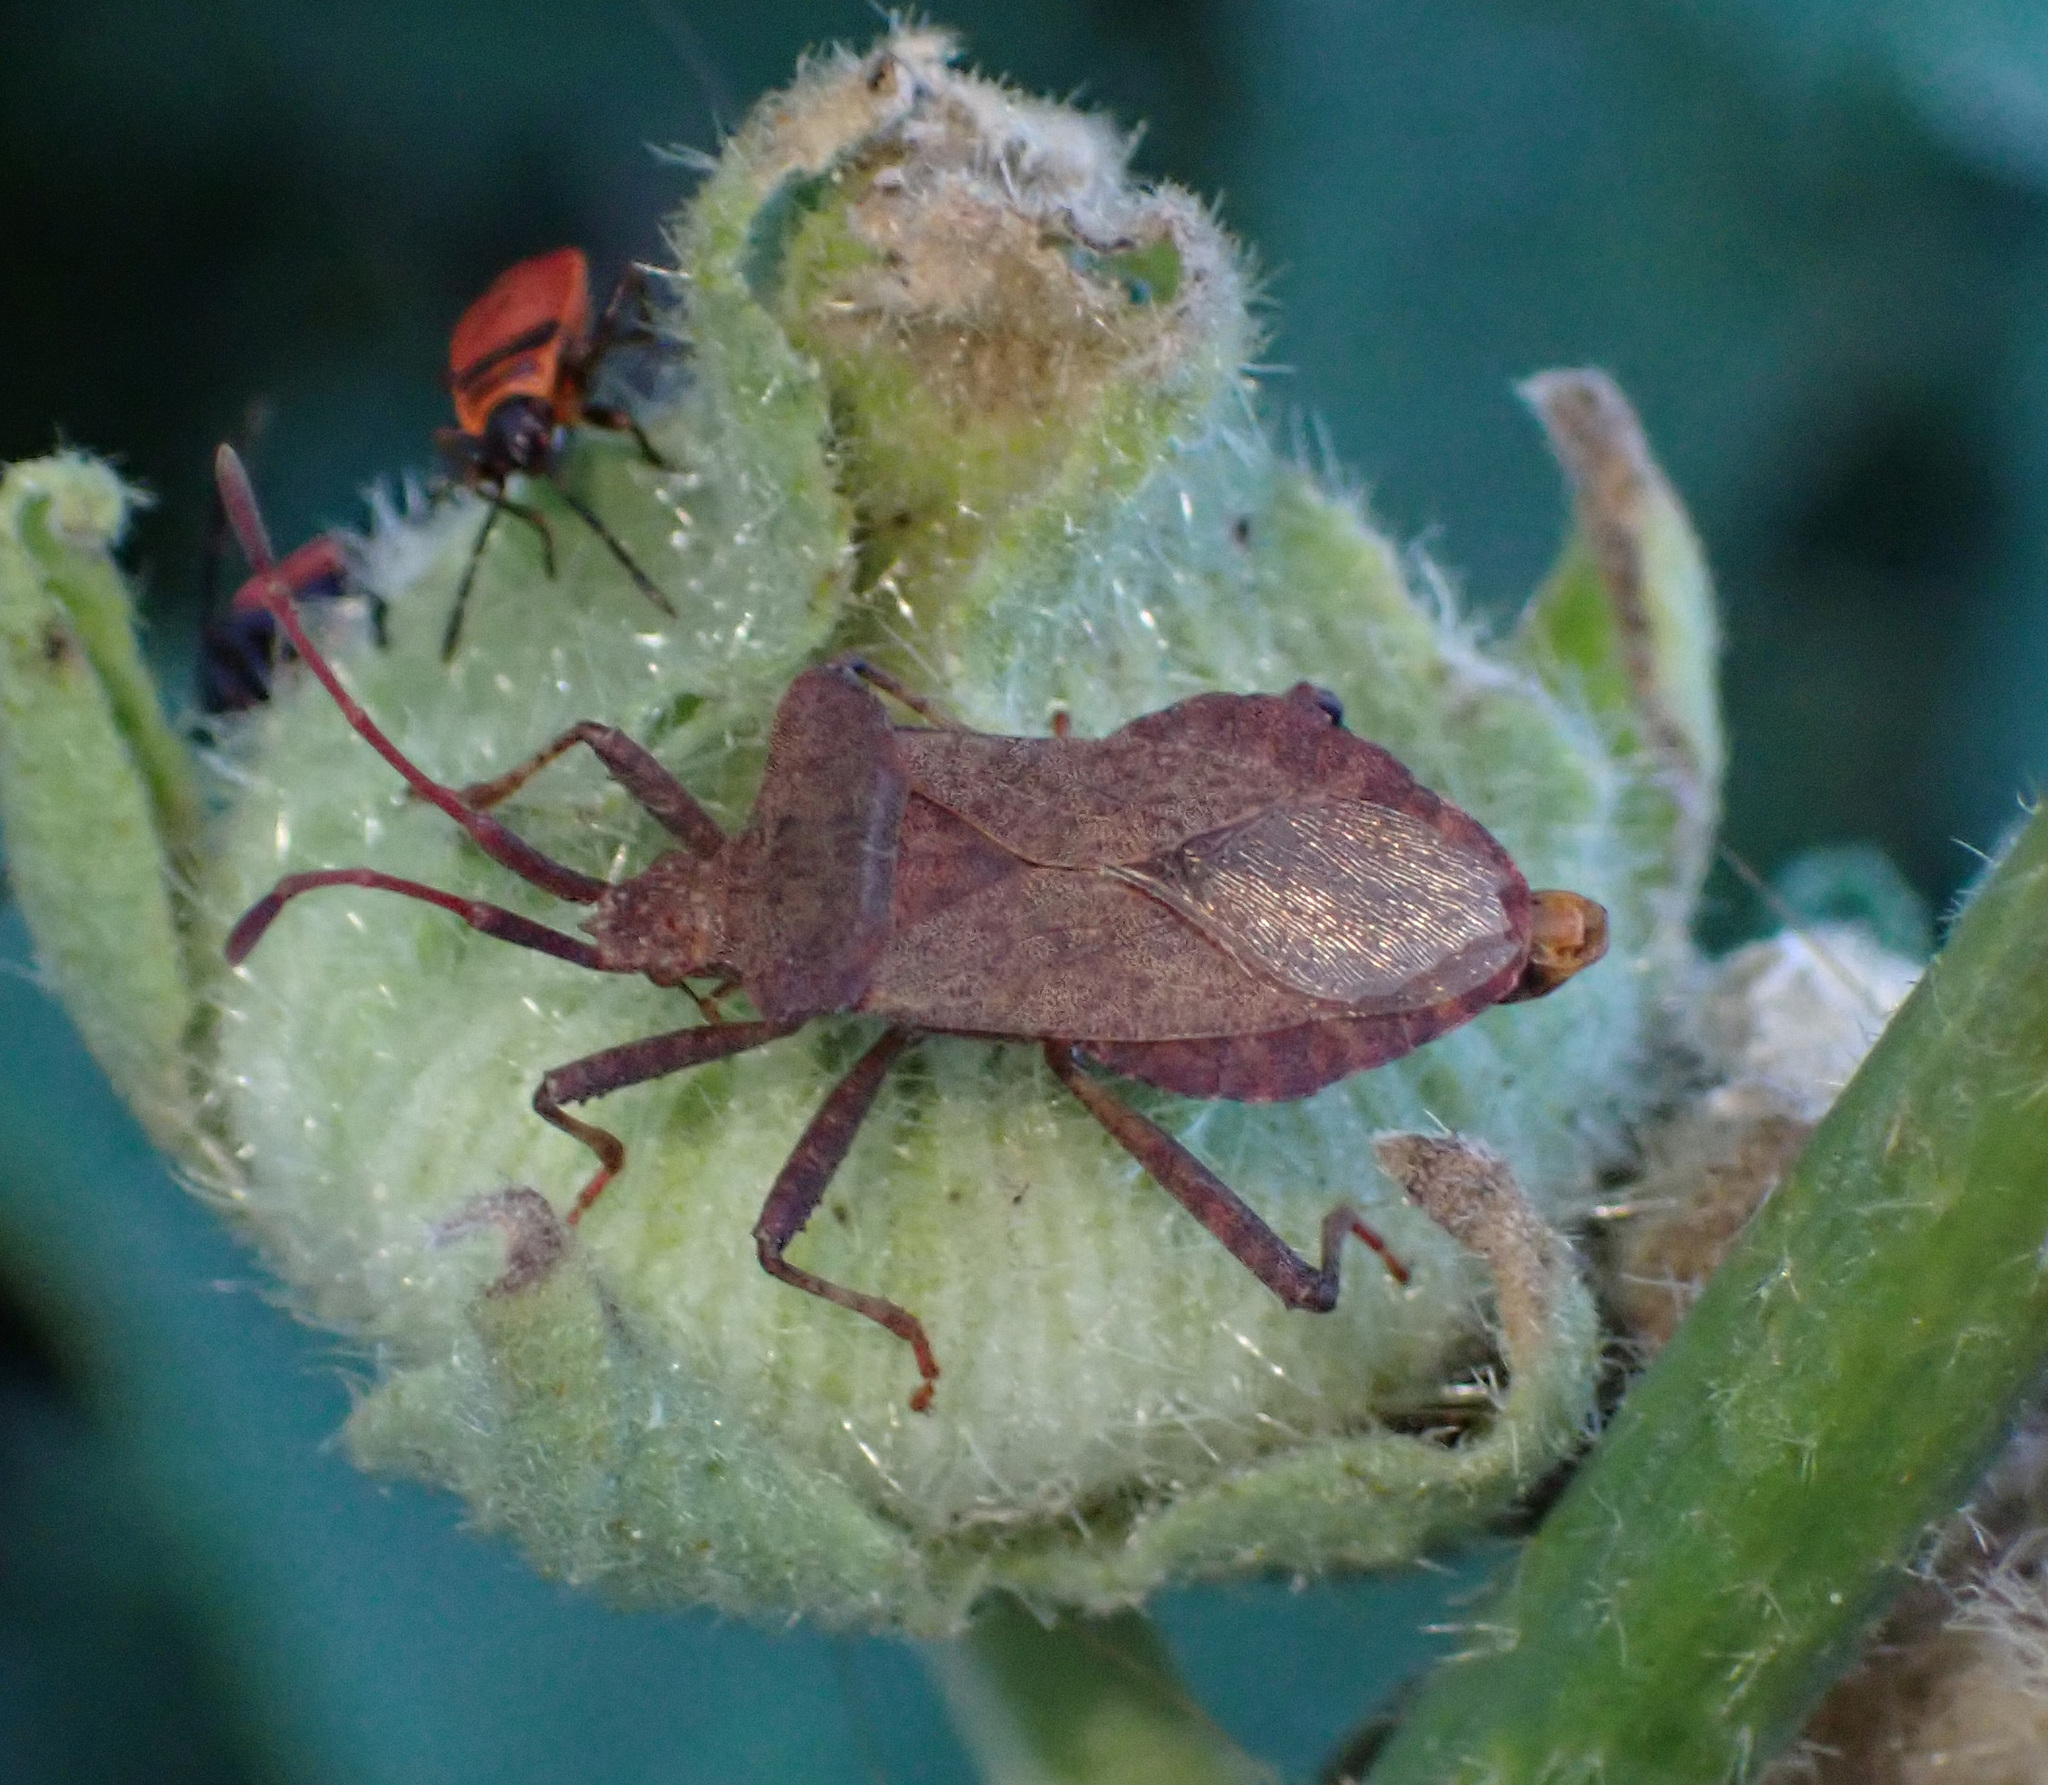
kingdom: Animalia
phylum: Arthropoda
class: Insecta
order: Hemiptera
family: Coreidae
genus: Coreus
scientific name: Coreus marginatus
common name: Dock bug
